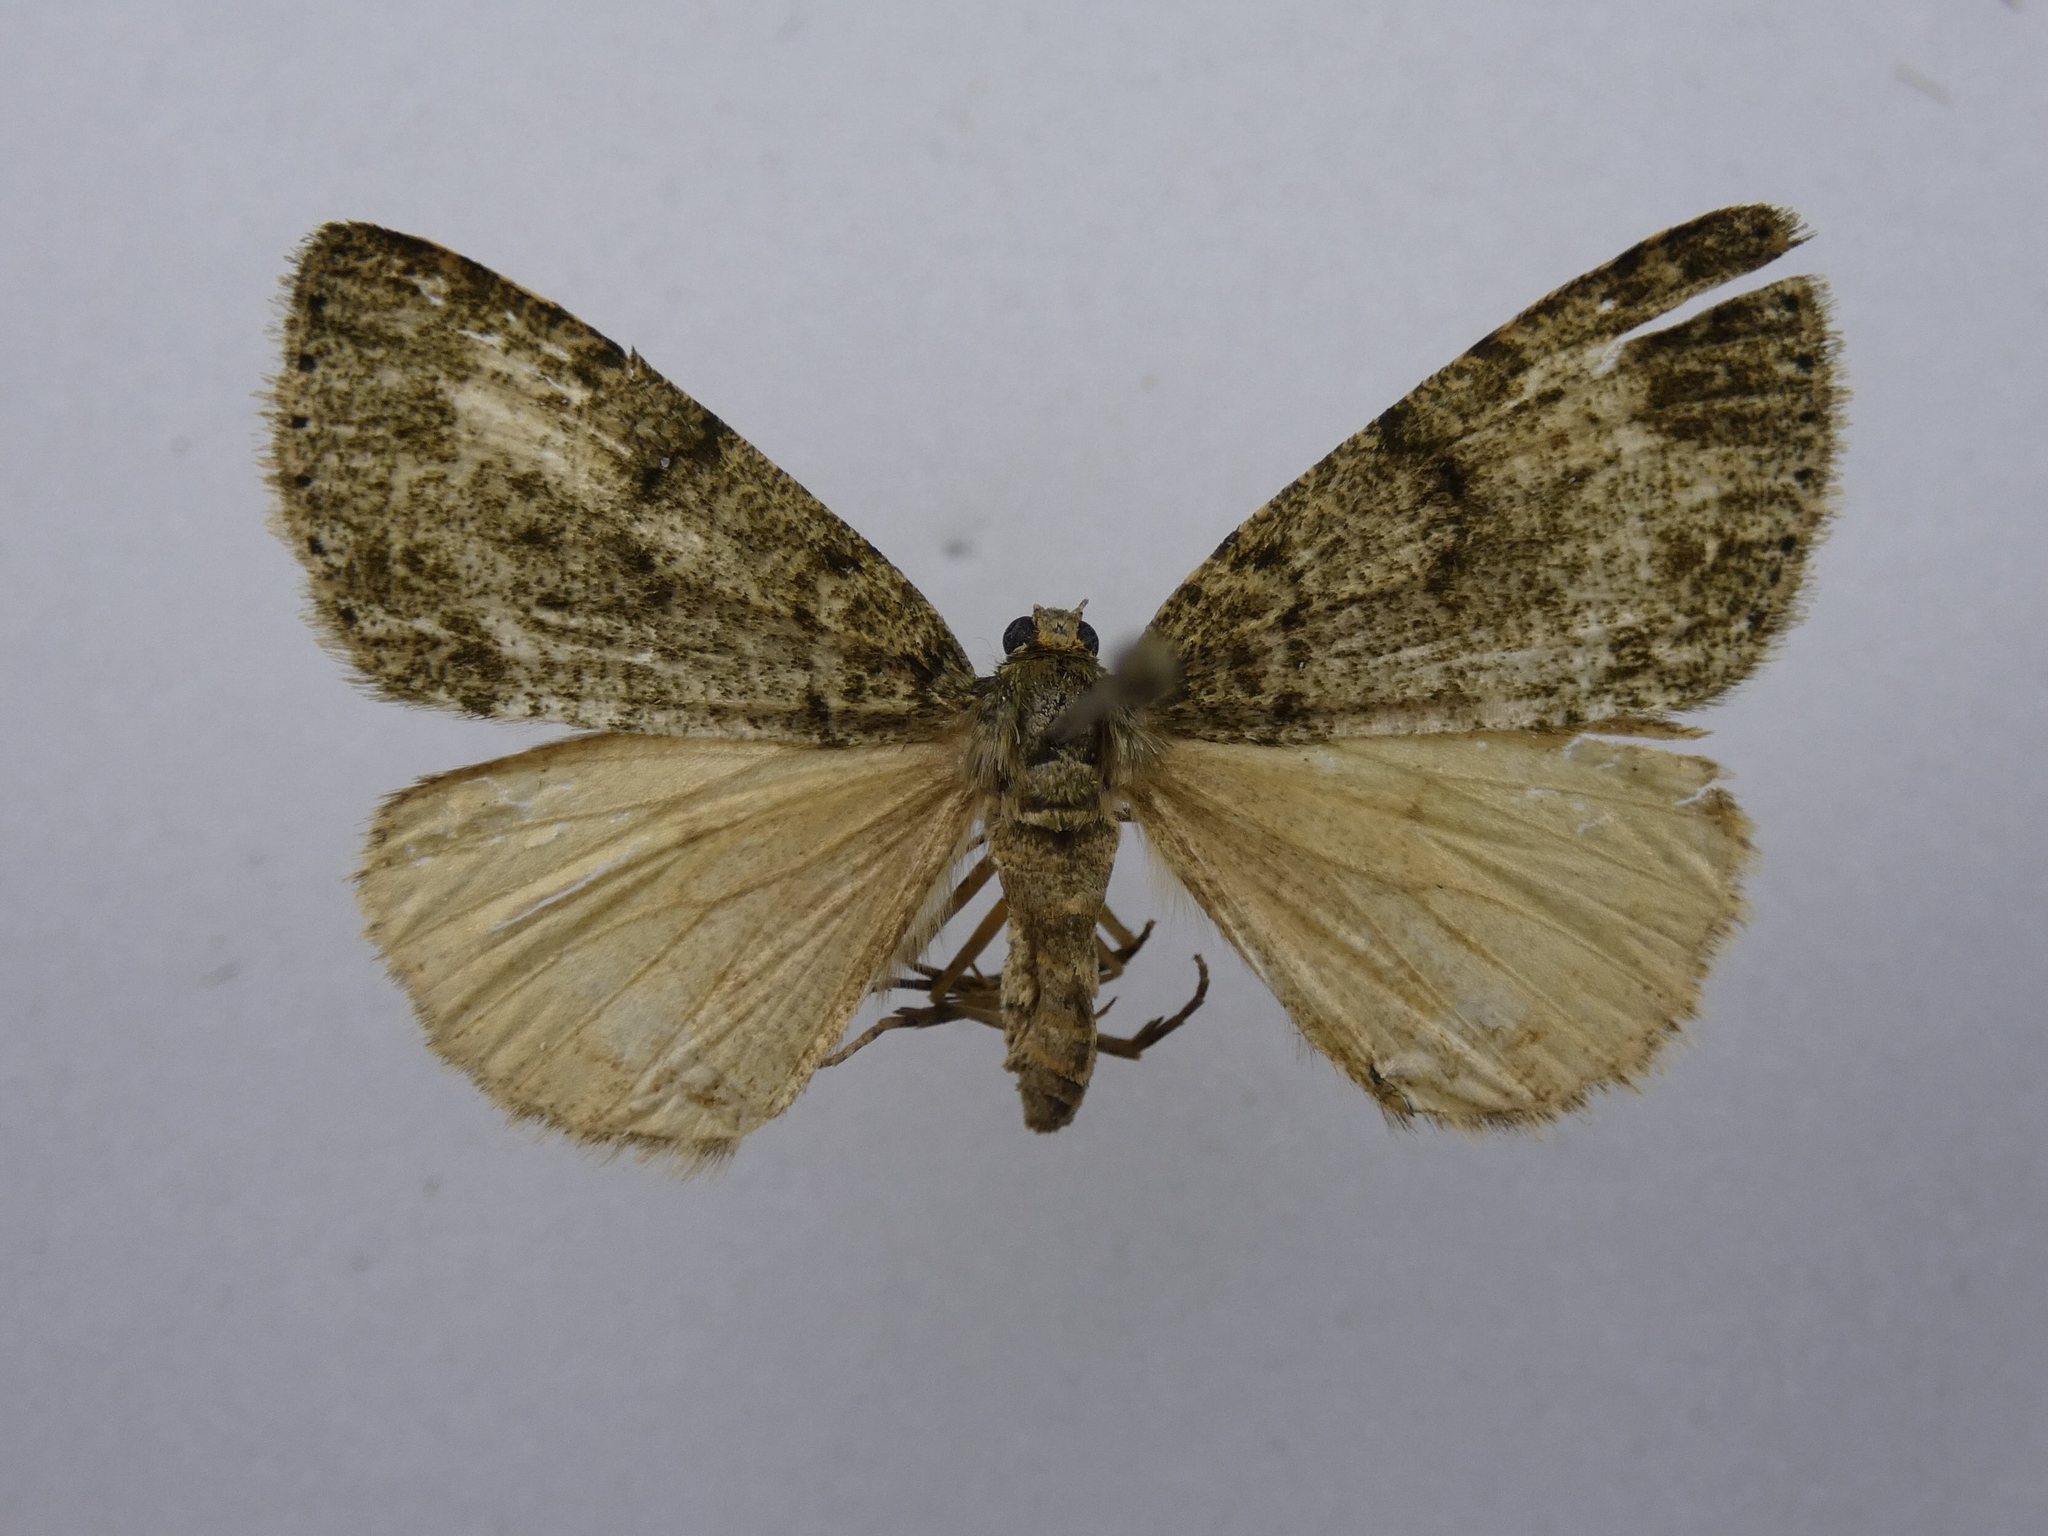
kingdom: Animalia
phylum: Arthropoda
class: Insecta
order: Lepidoptera
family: Geometridae
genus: Pseudocoremia
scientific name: Pseudocoremia indistincta
